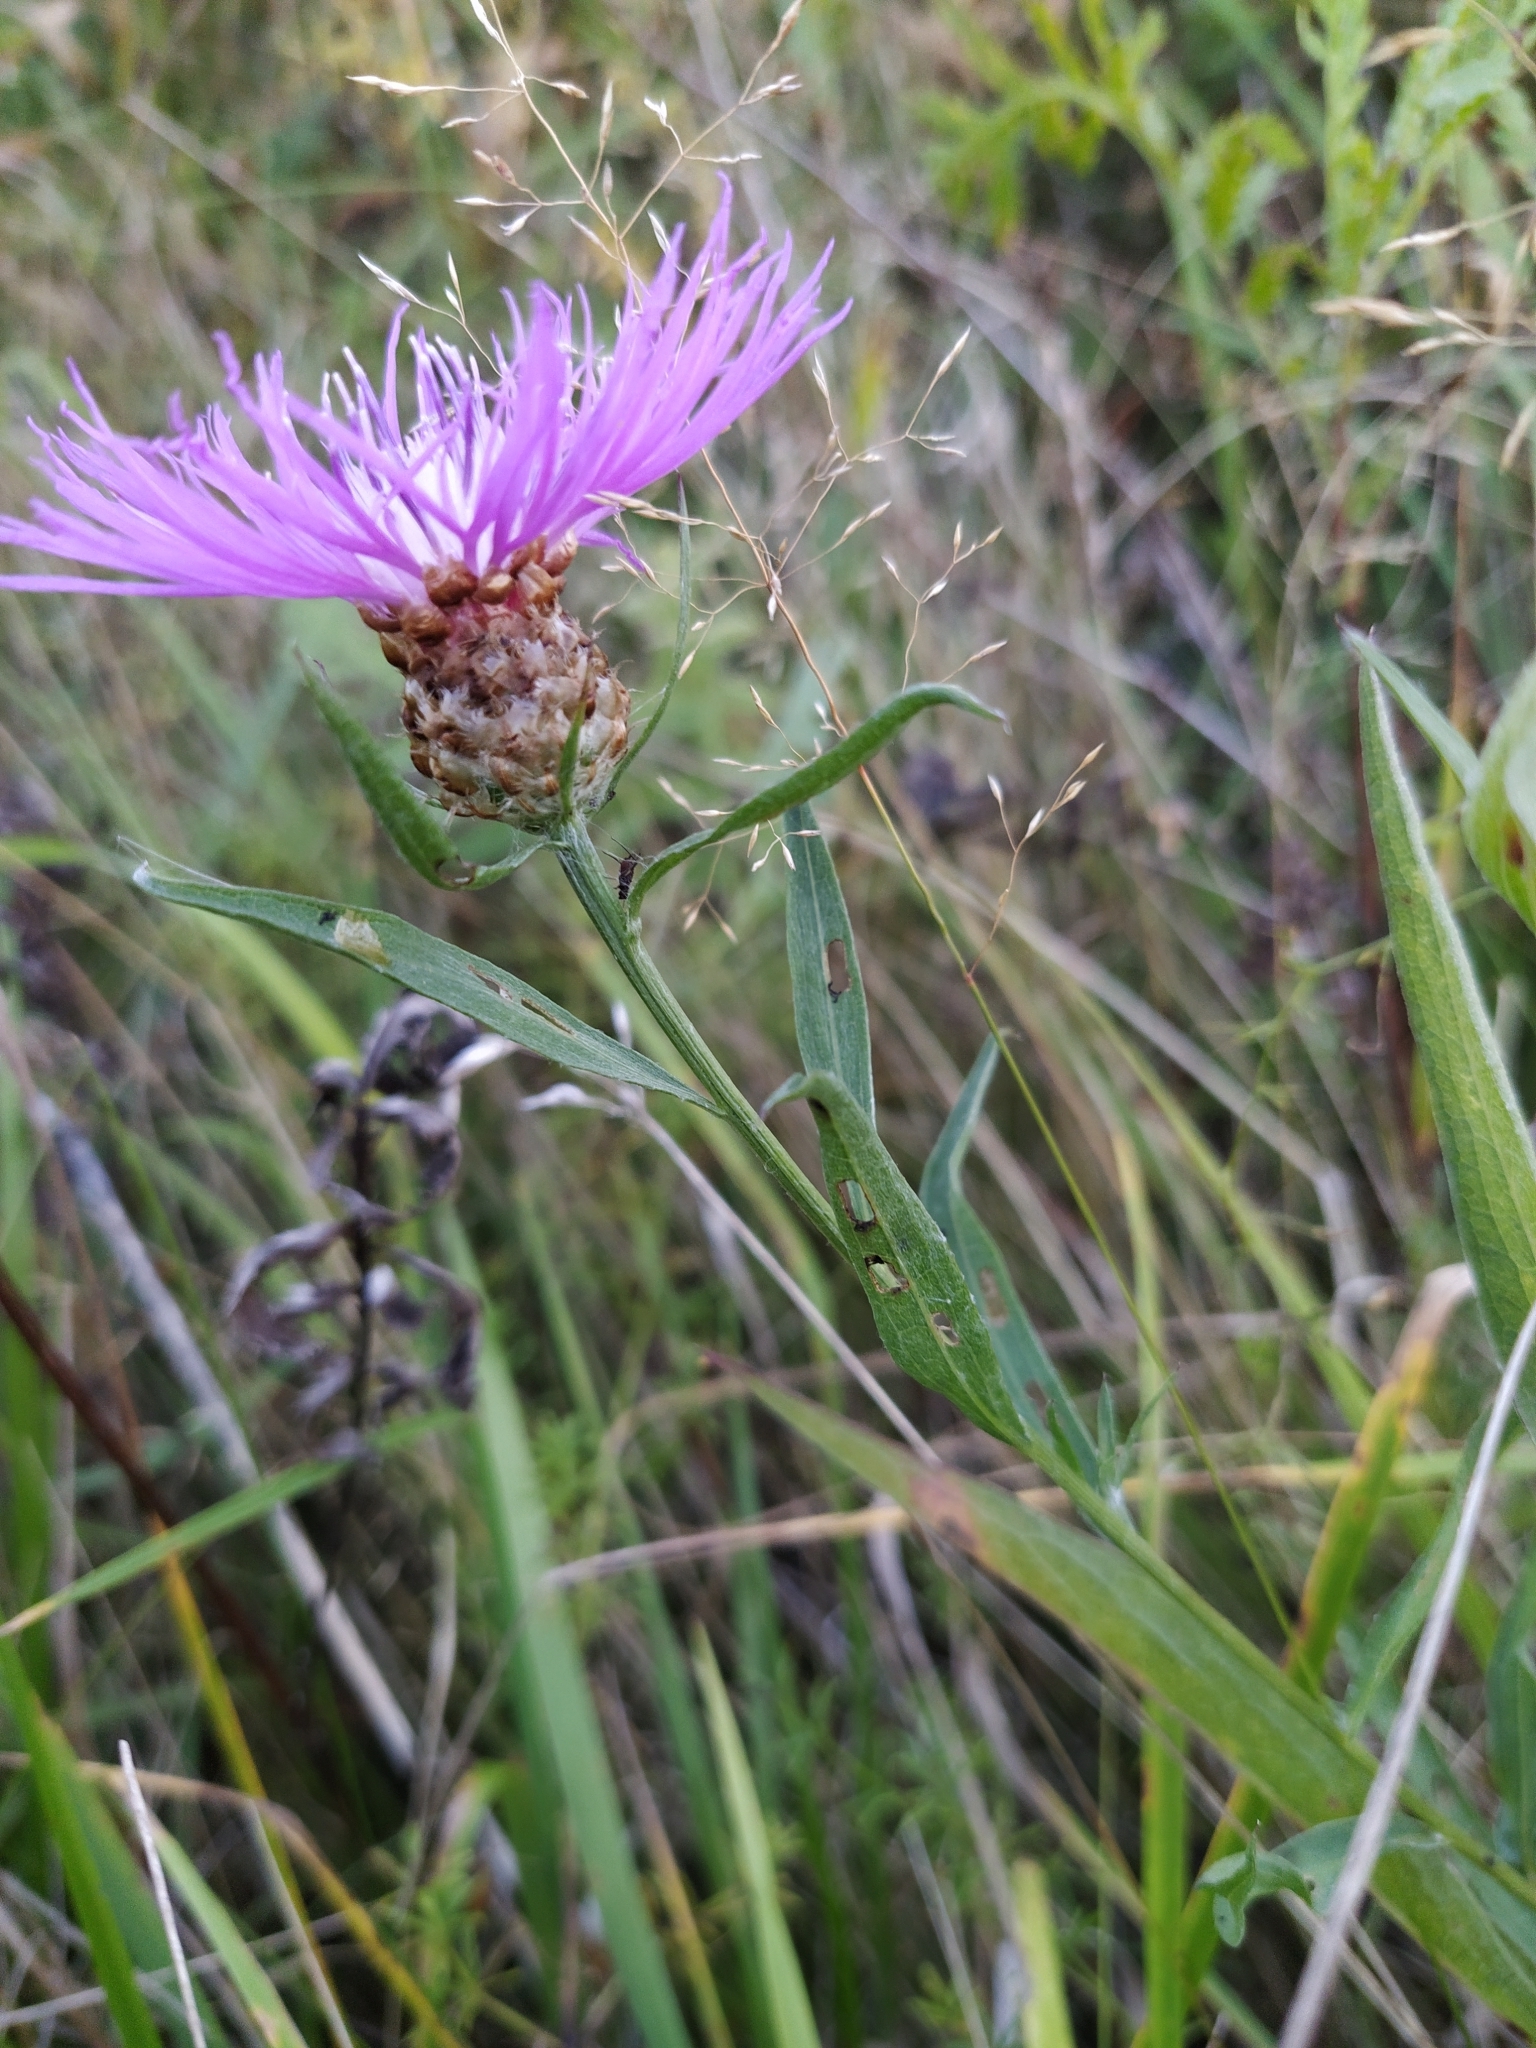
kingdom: Plantae
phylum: Tracheophyta
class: Magnoliopsida
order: Asterales
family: Asteraceae
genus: Centaurea
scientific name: Centaurea jacea
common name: Brown knapweed
